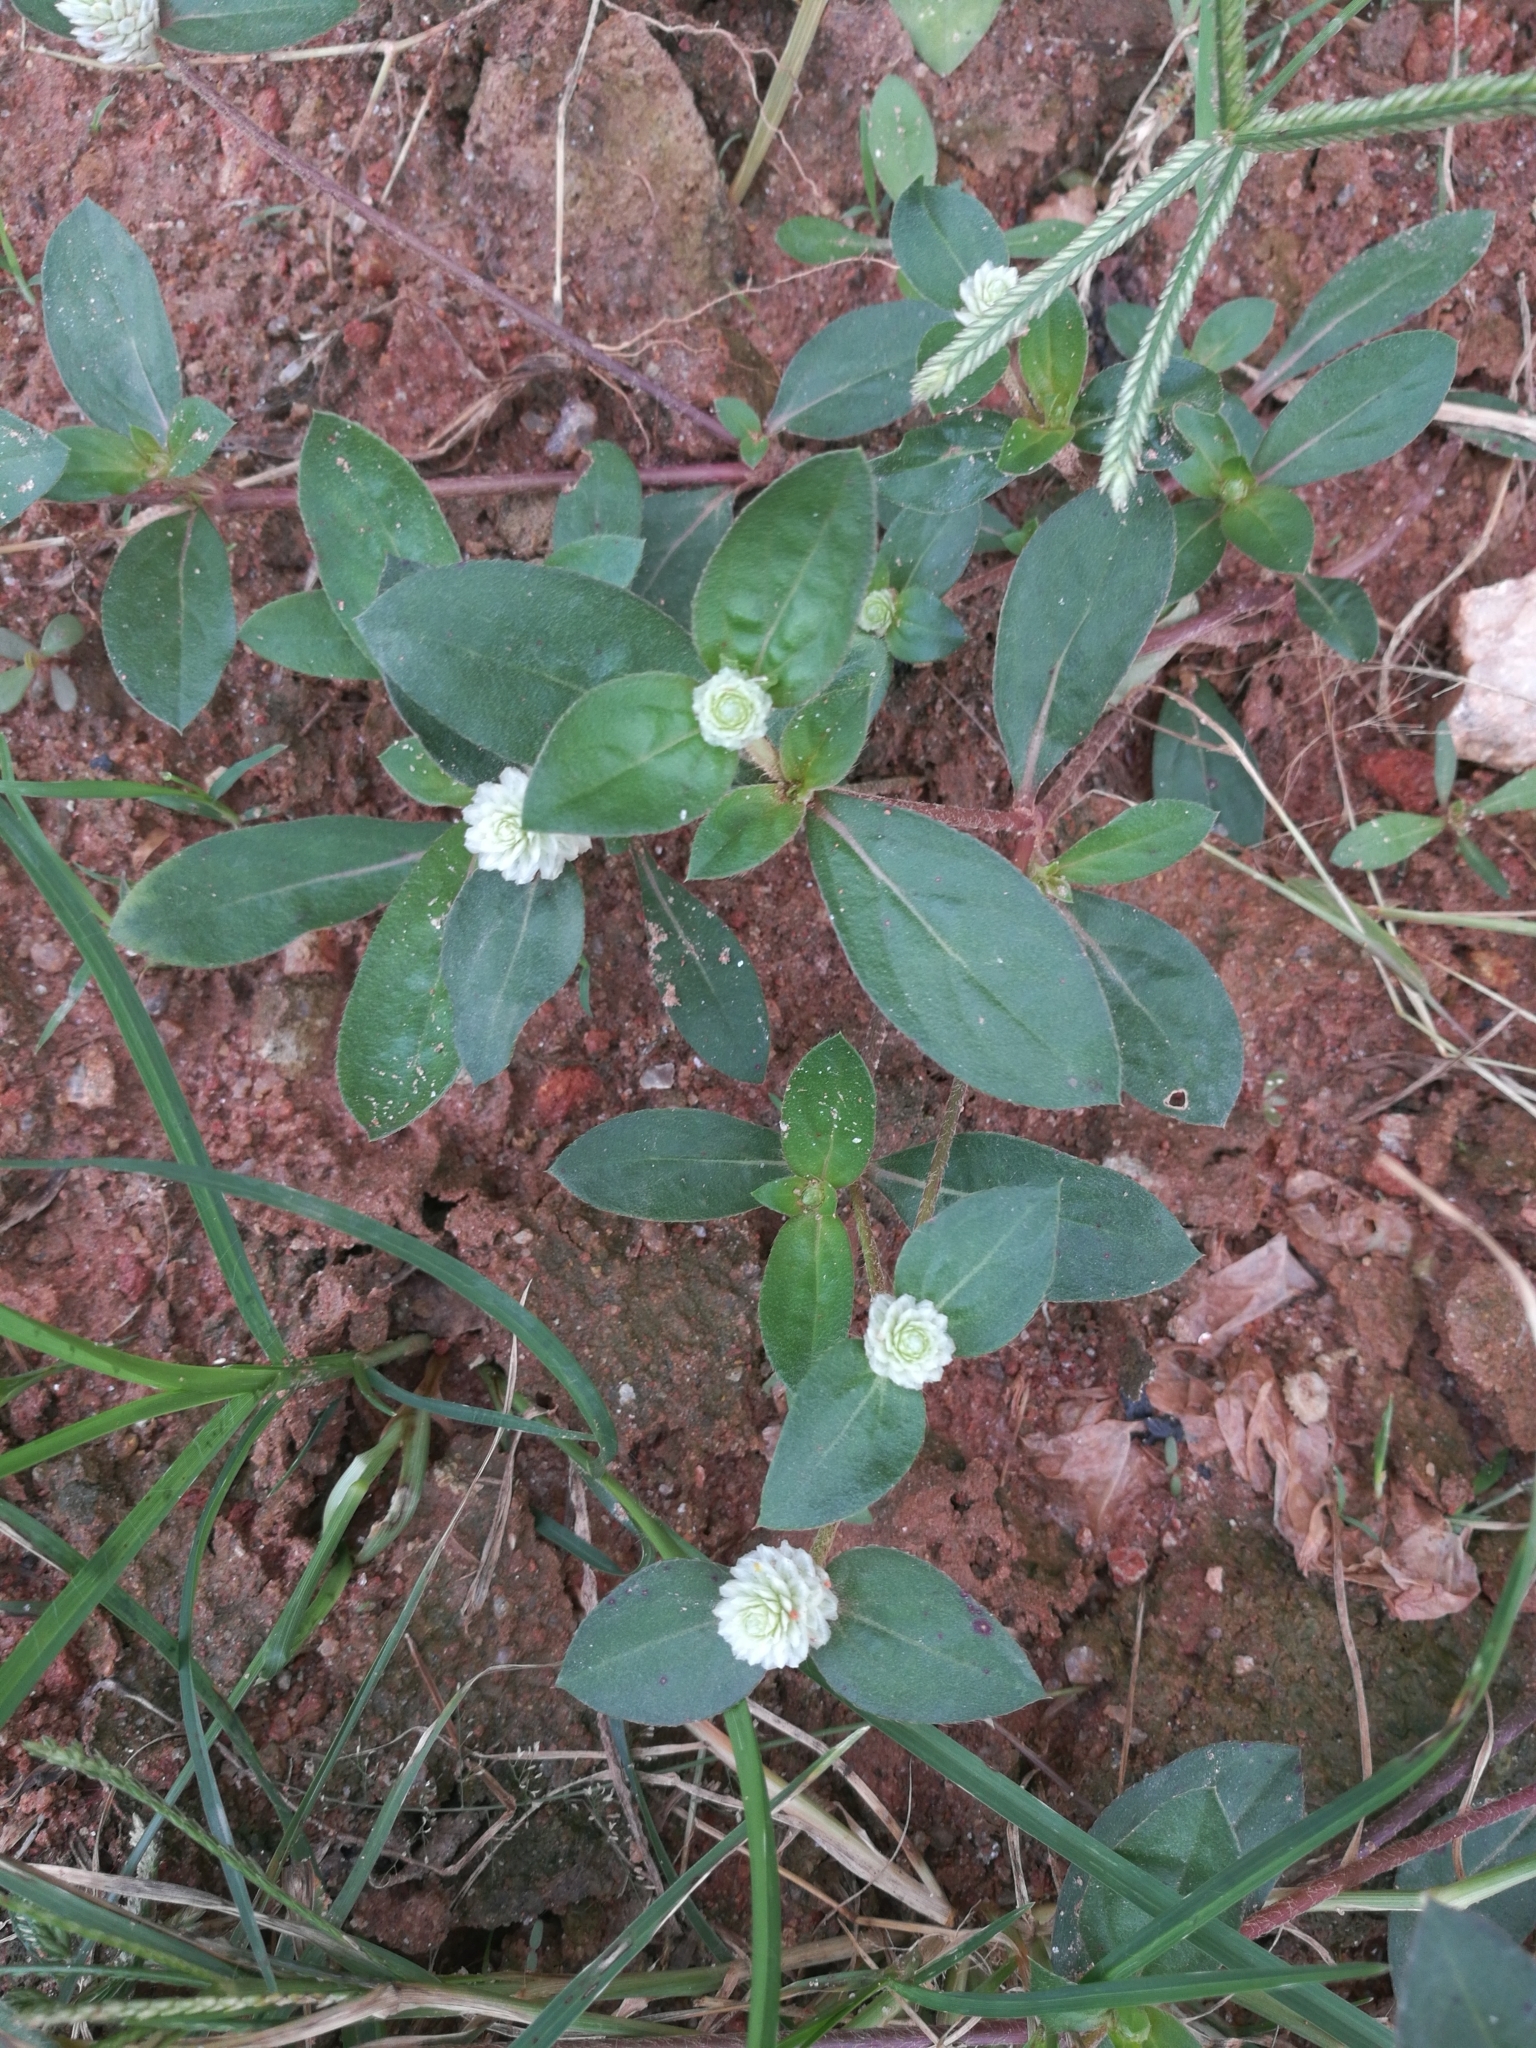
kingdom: Plantae
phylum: Tracheophyta
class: Magnoliopsida
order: Caryophyllales
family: Amaranthaceae
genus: Gomphrena
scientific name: Gomphrena celosioides
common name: Gomphrena-weed
